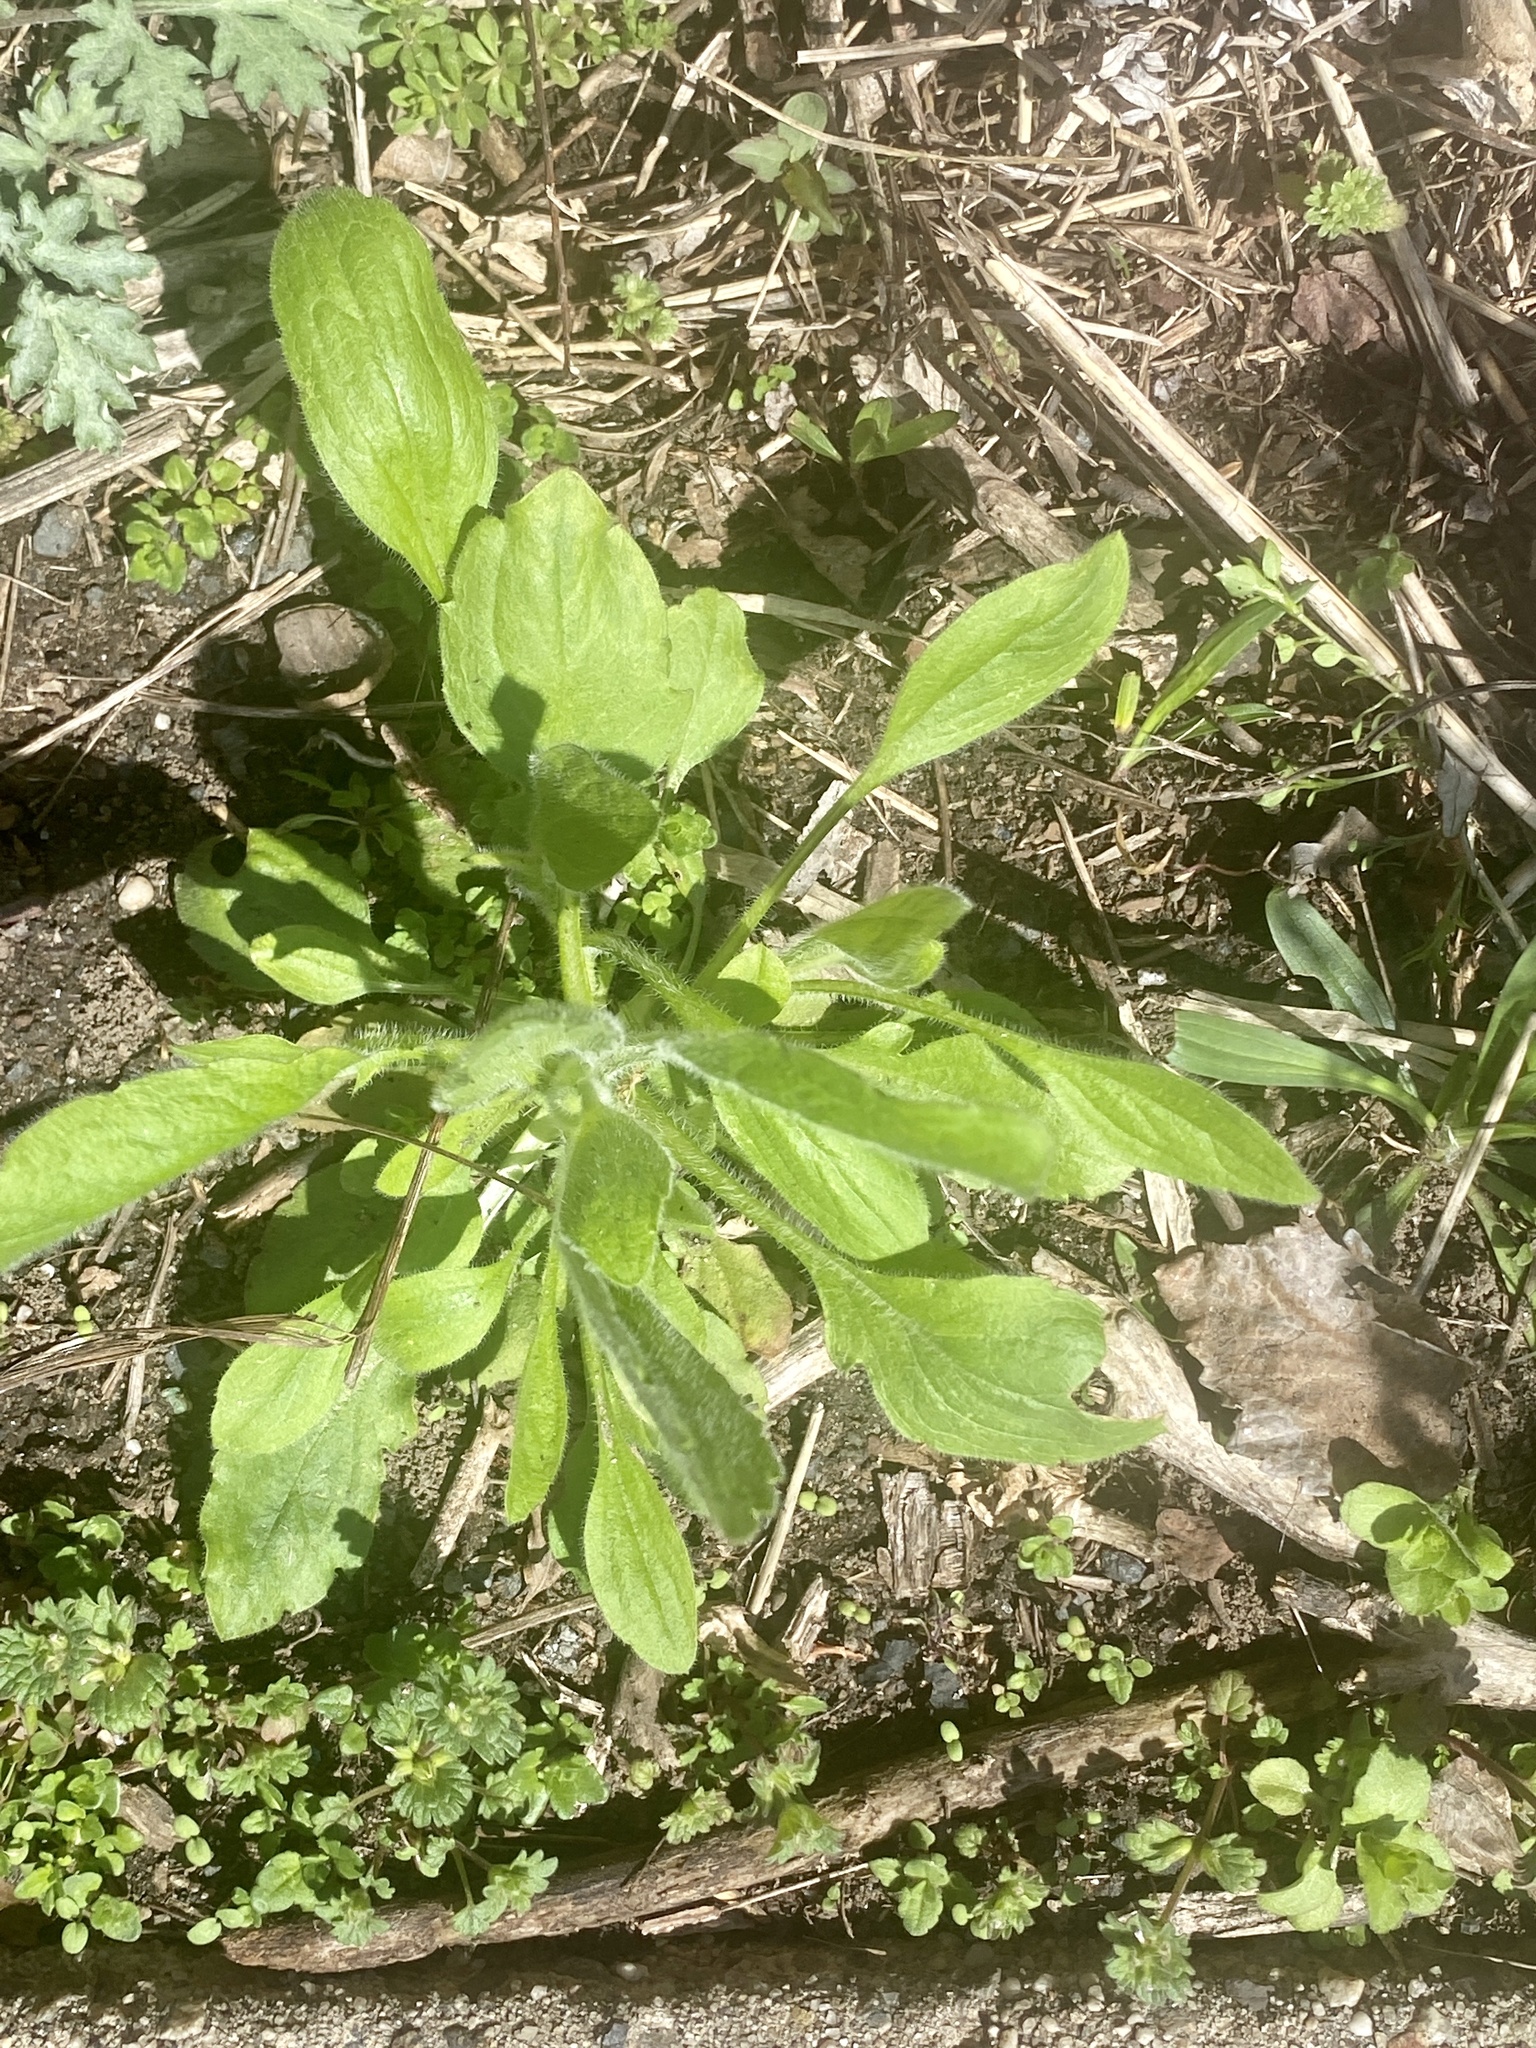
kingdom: Plantae
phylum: Tracheophyta
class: Magnoliopsida
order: Asterales
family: Asteraceae
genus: Erigeron
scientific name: Erigeron canadensis
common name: Canadian fleabane
